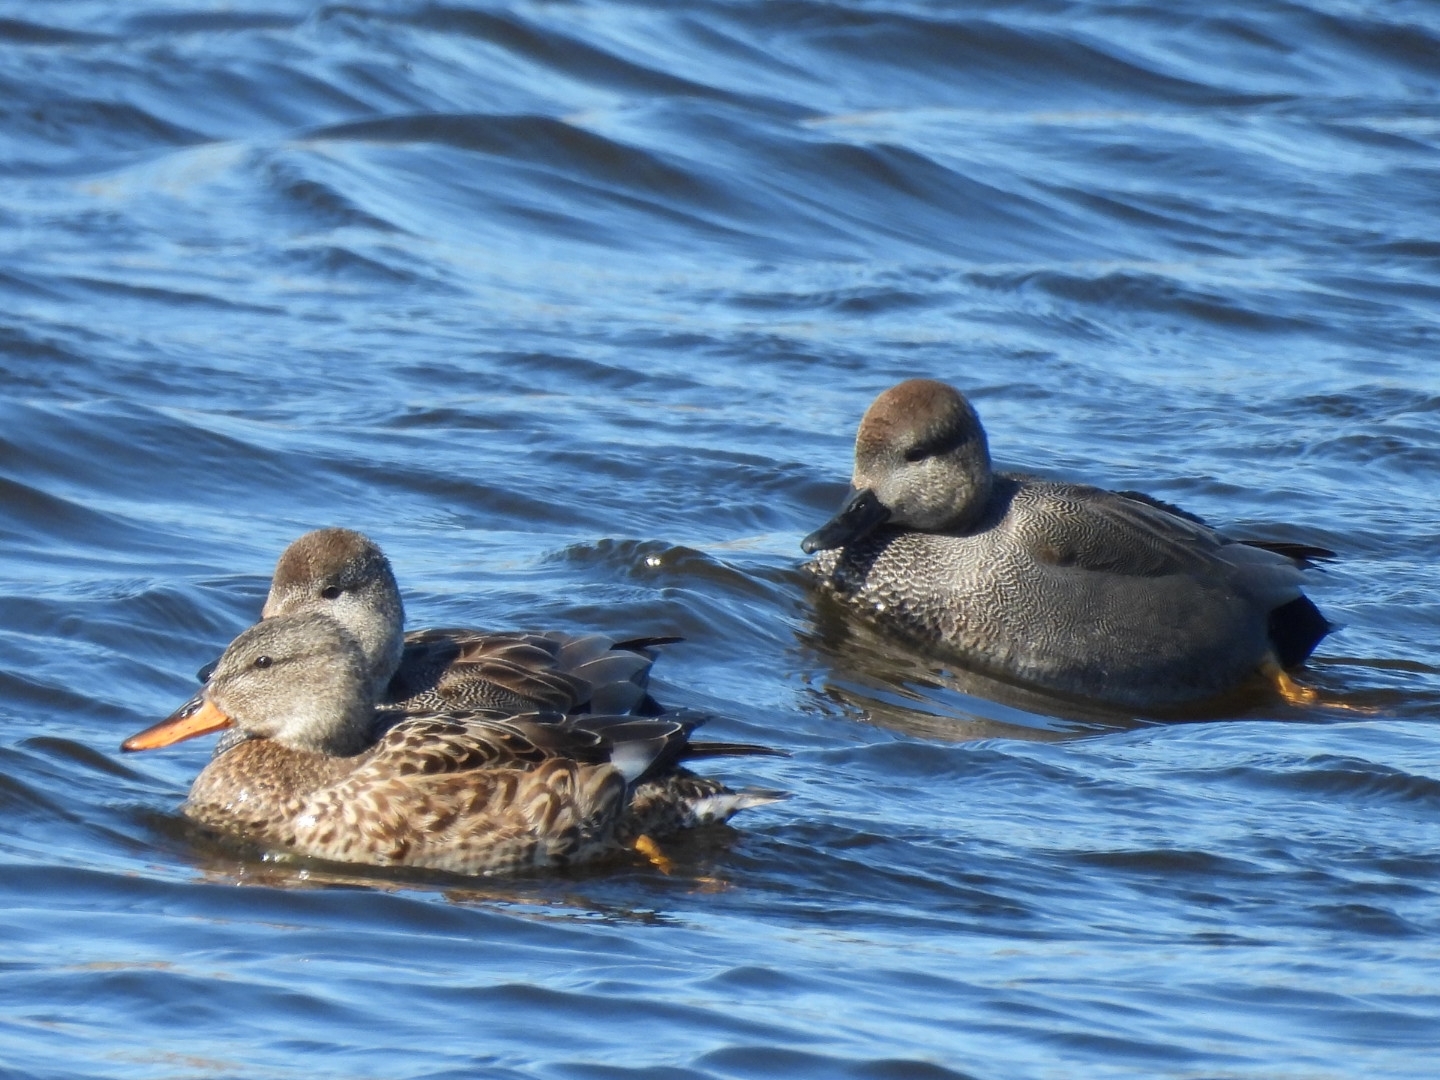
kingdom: Animalia
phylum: Chordata
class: Aves
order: Anseriformes
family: Anatidae
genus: Mareca
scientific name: Mareca strepera
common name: Gadwall
